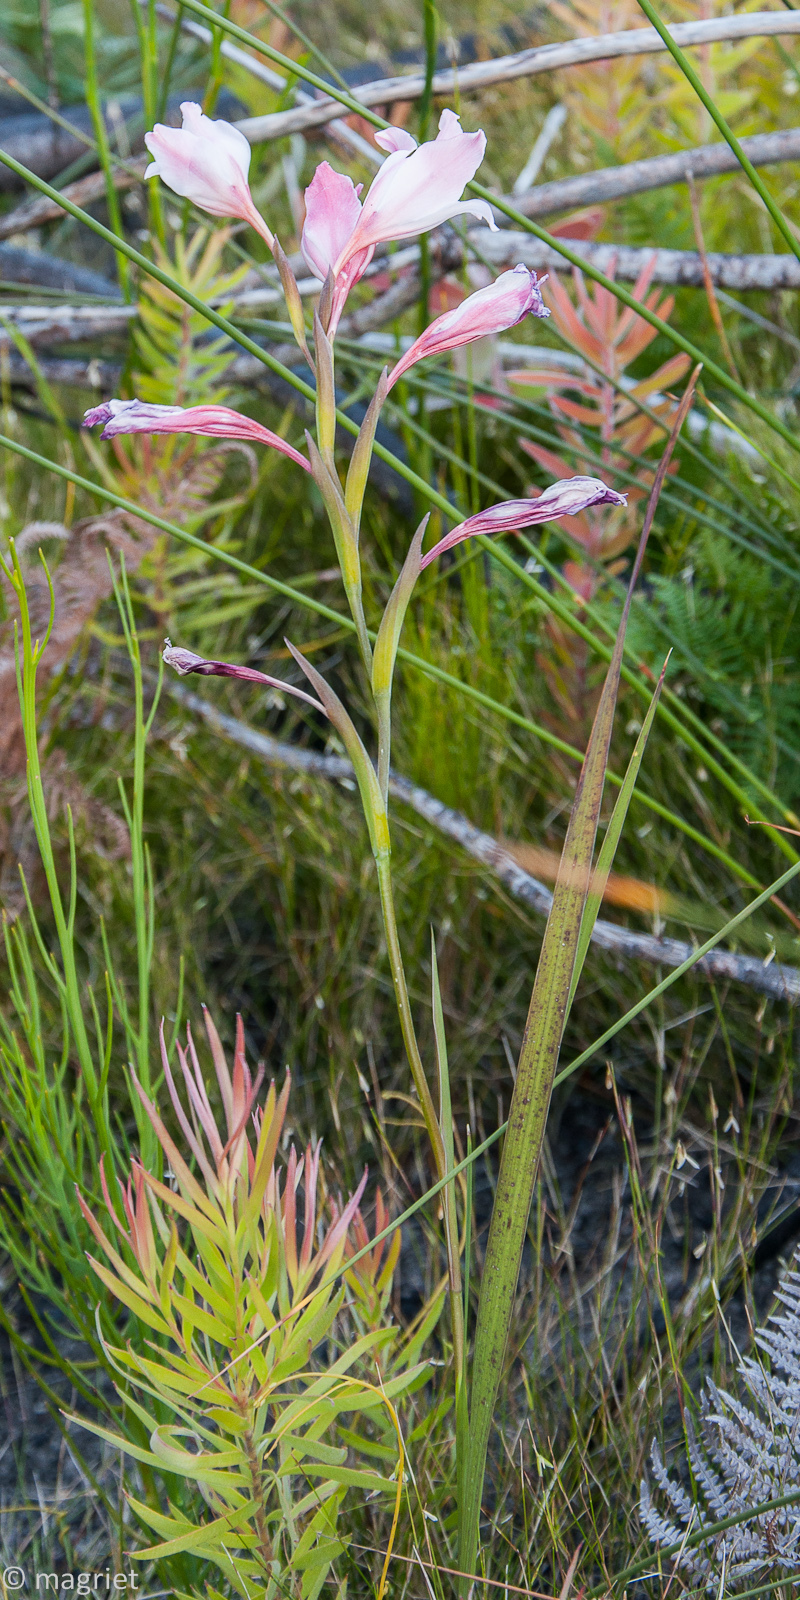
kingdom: Plantae
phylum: Tracheophyta
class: Liliopsida
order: Asparagales
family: Iridaceae
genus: Gladiolus
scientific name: Gladiolus carneus
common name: Painted-lady
